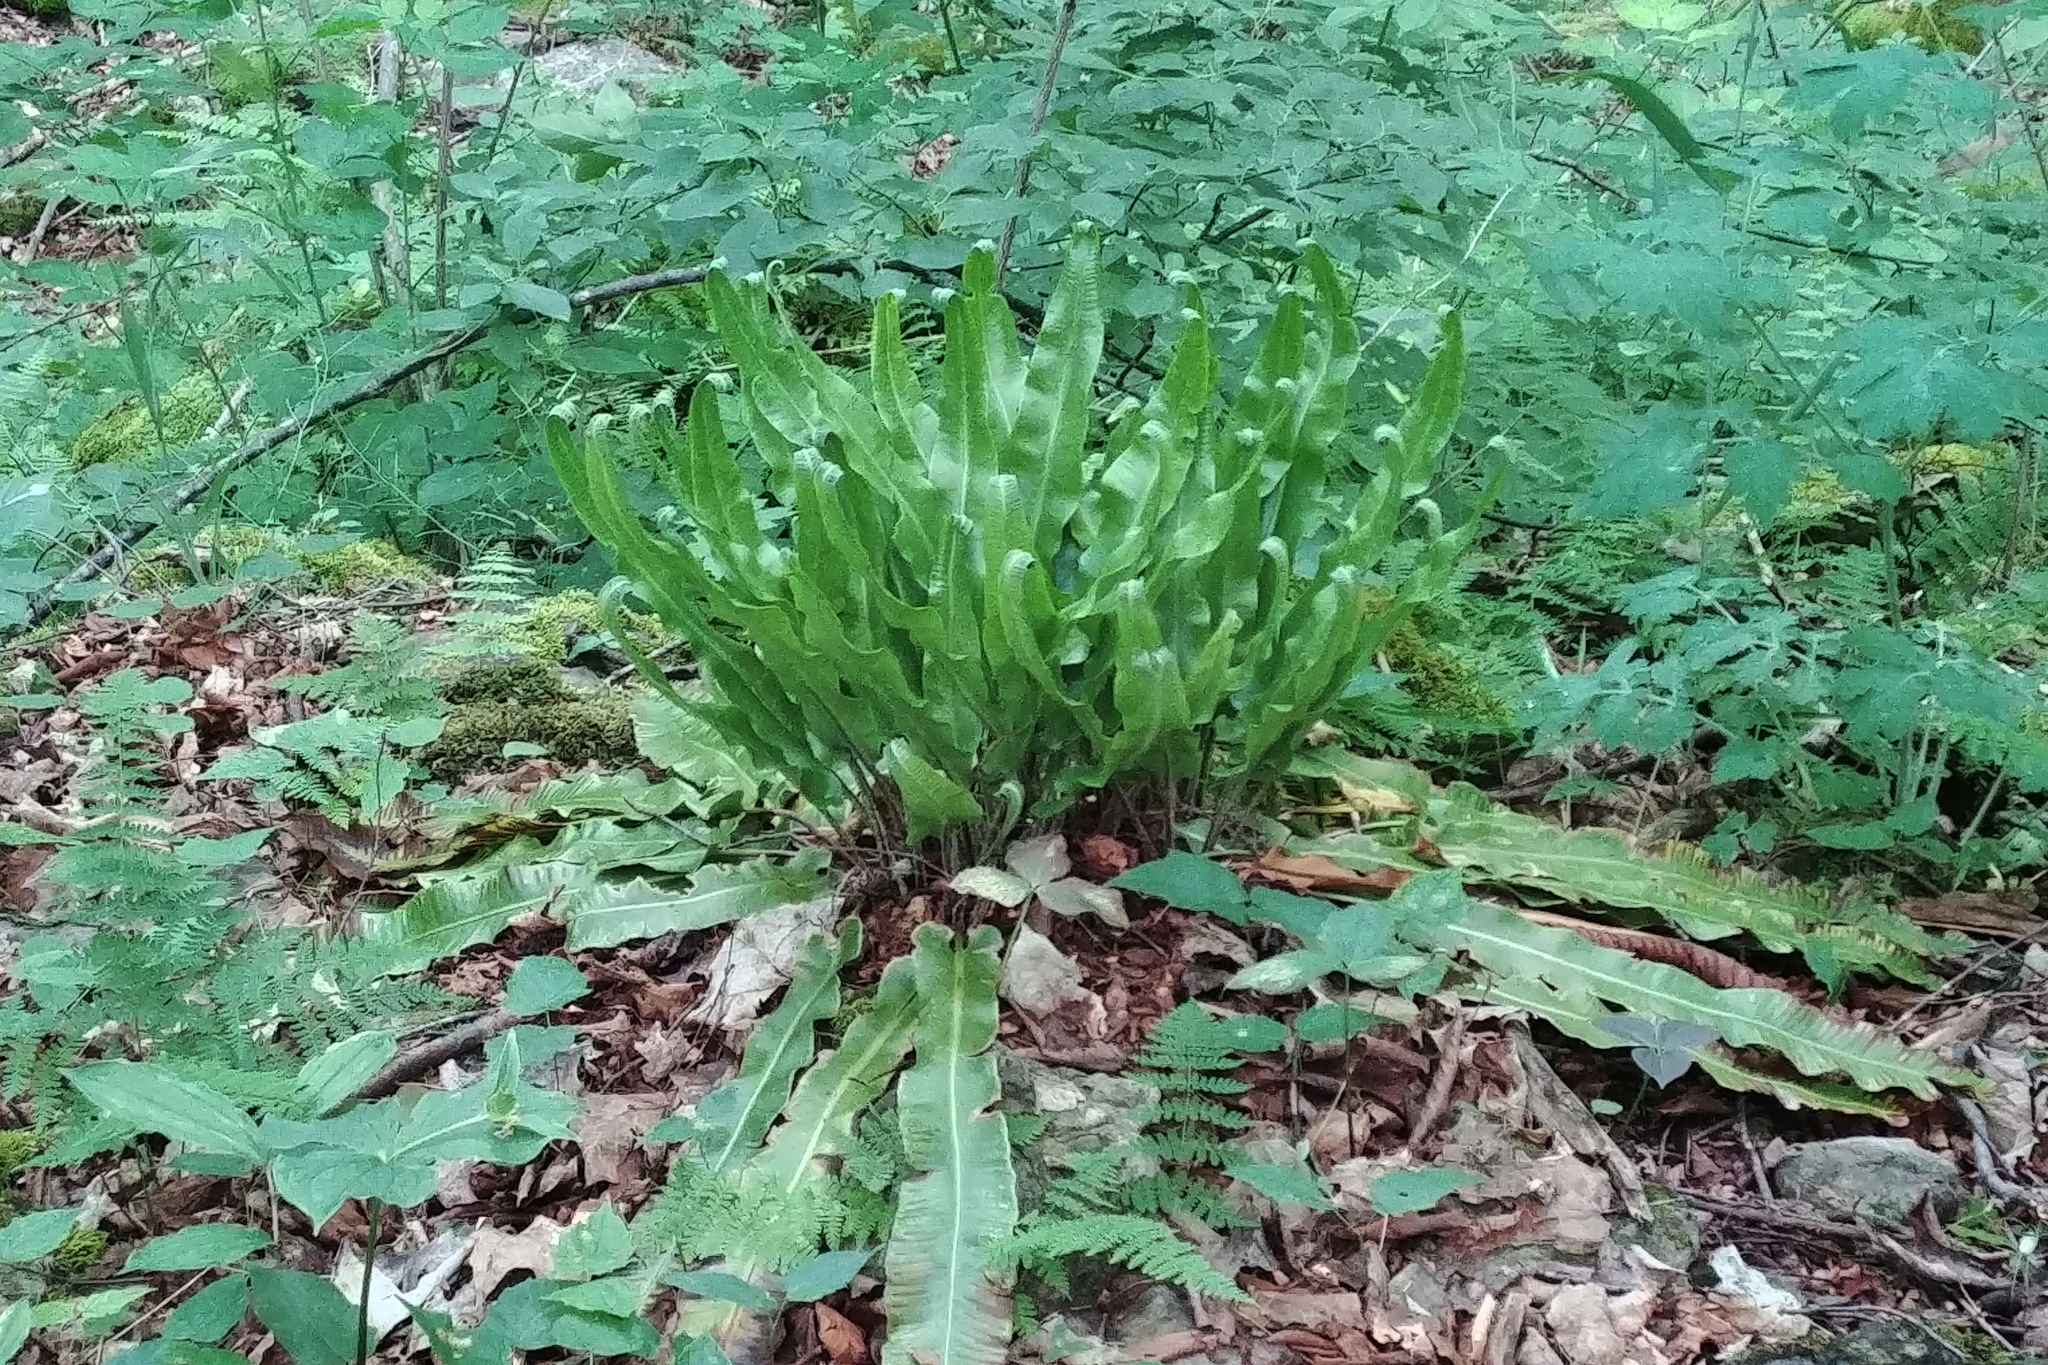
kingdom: Plantae
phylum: Tracheophyta
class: Polypodiopsida
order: Polypodiales
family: Aspleniaceae
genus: Asplenium
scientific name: Asplenium scolopendrium
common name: Hart's-tongue fern
